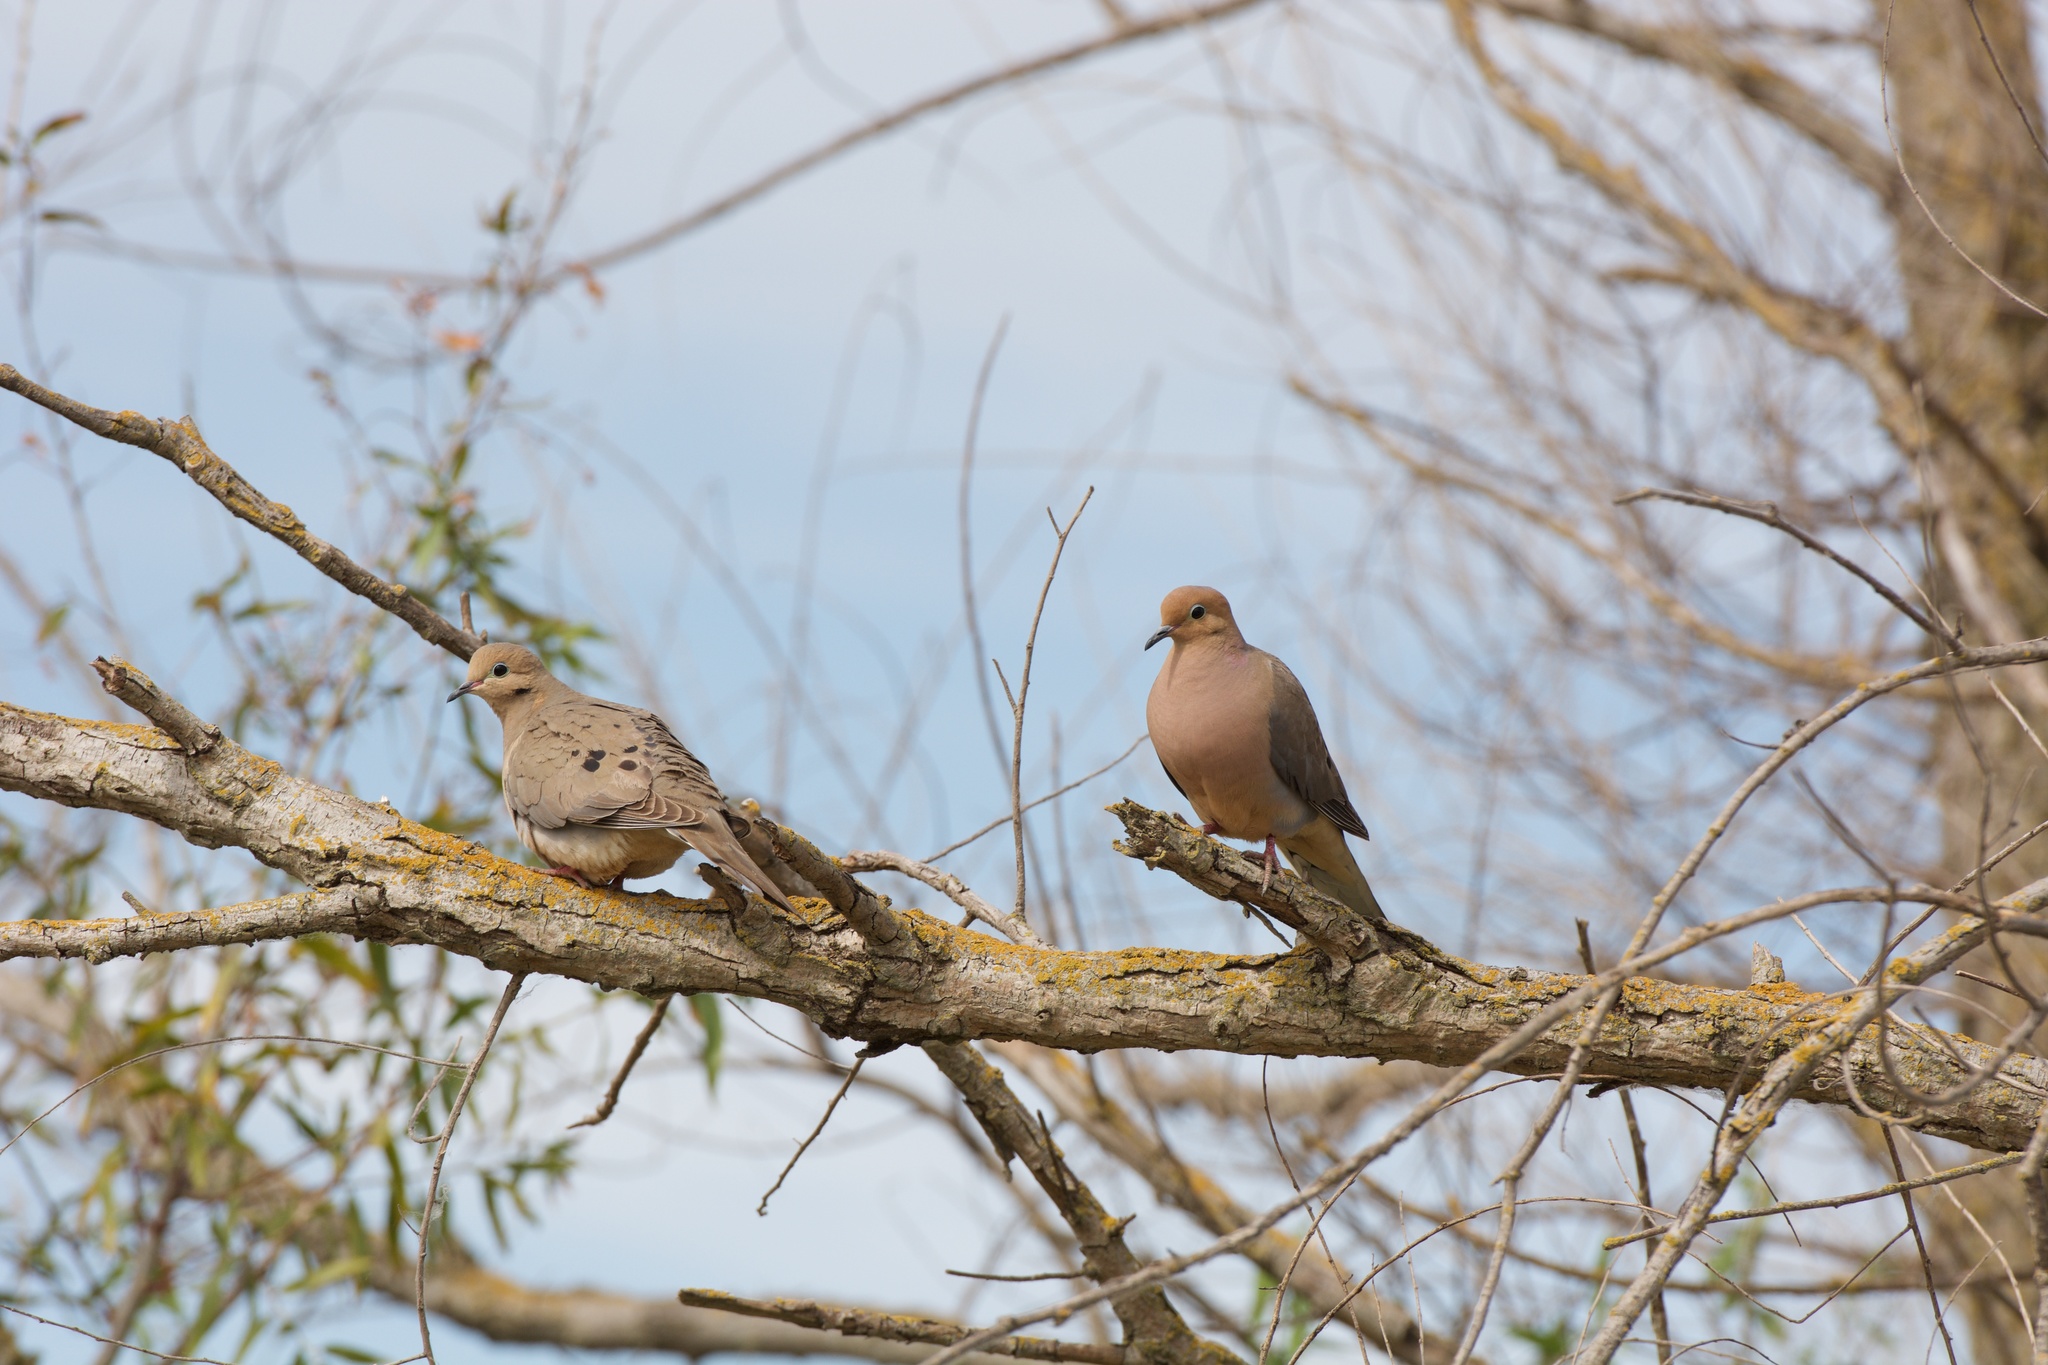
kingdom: Animalia
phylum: Chordata
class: Aves
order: Columbiformes
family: Columbidae
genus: Zenaida
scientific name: Zenaida macroura
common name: Mourning dove
